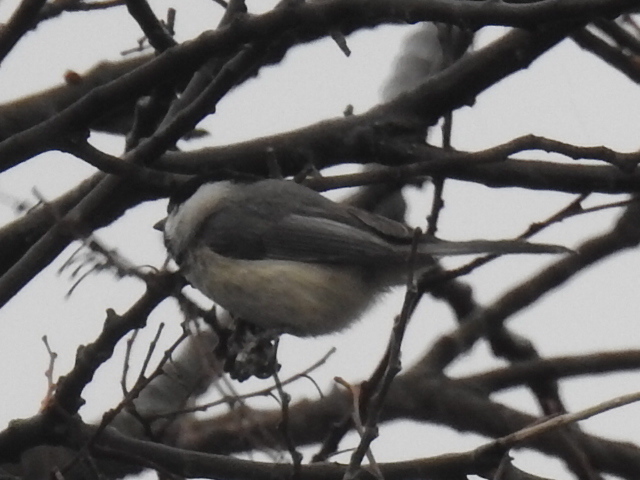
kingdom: Animalia
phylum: Chordata
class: Aves
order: Passeriformes
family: Paridae
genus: Poecile
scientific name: Poecile carolinensis
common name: Carolina chickadee
